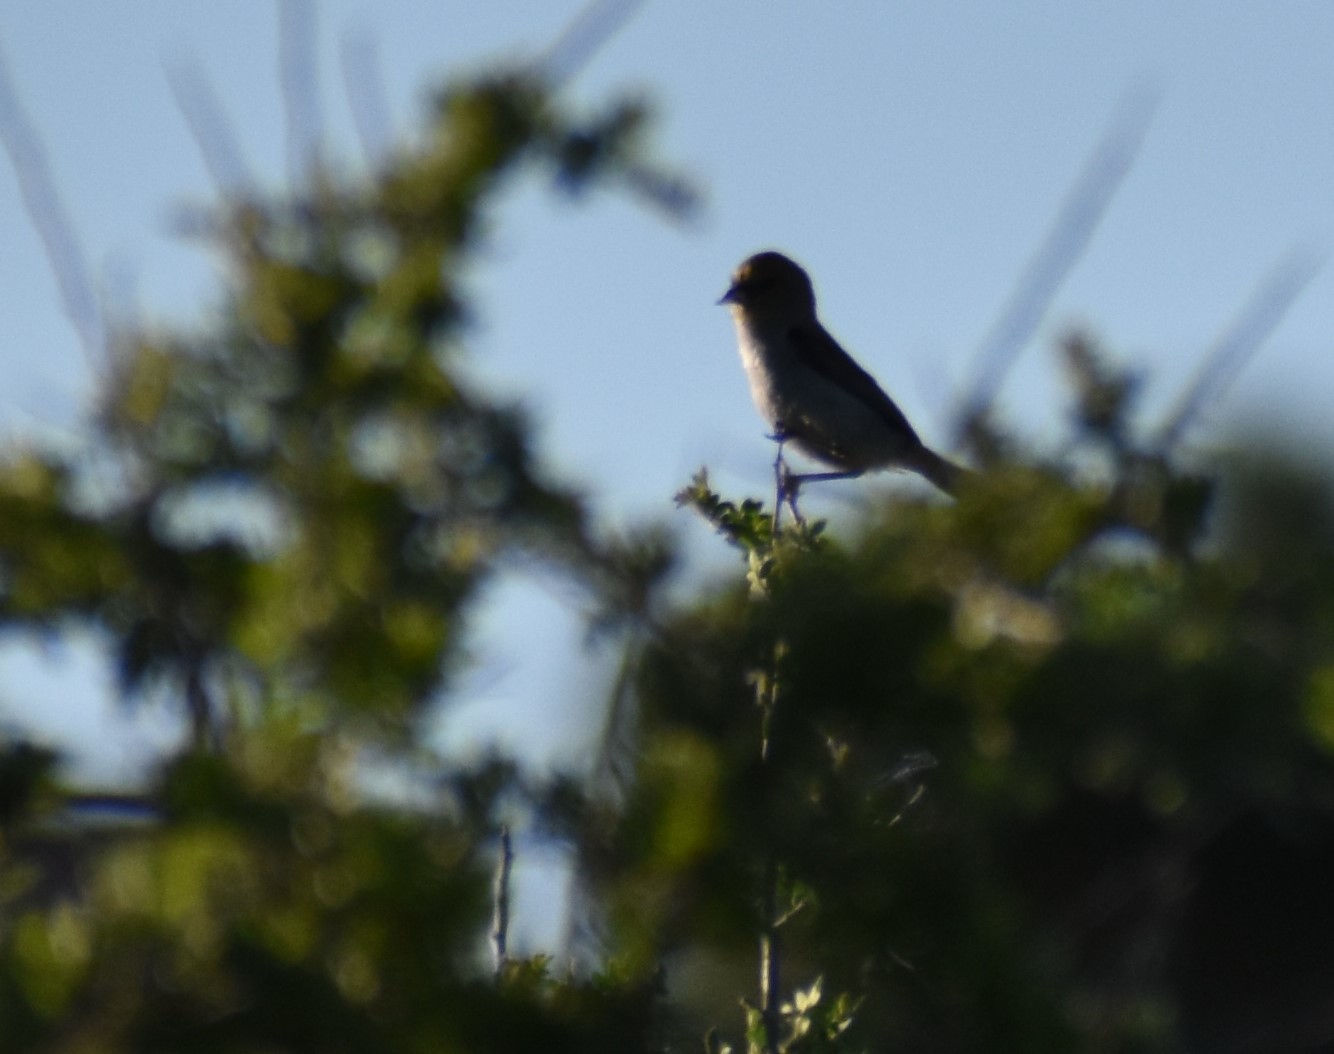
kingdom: Animalia
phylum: Chordata
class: Aves
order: Passeriformes
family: Remizidae
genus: Auriparus
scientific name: Auriparus flaviceps
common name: Verdin
